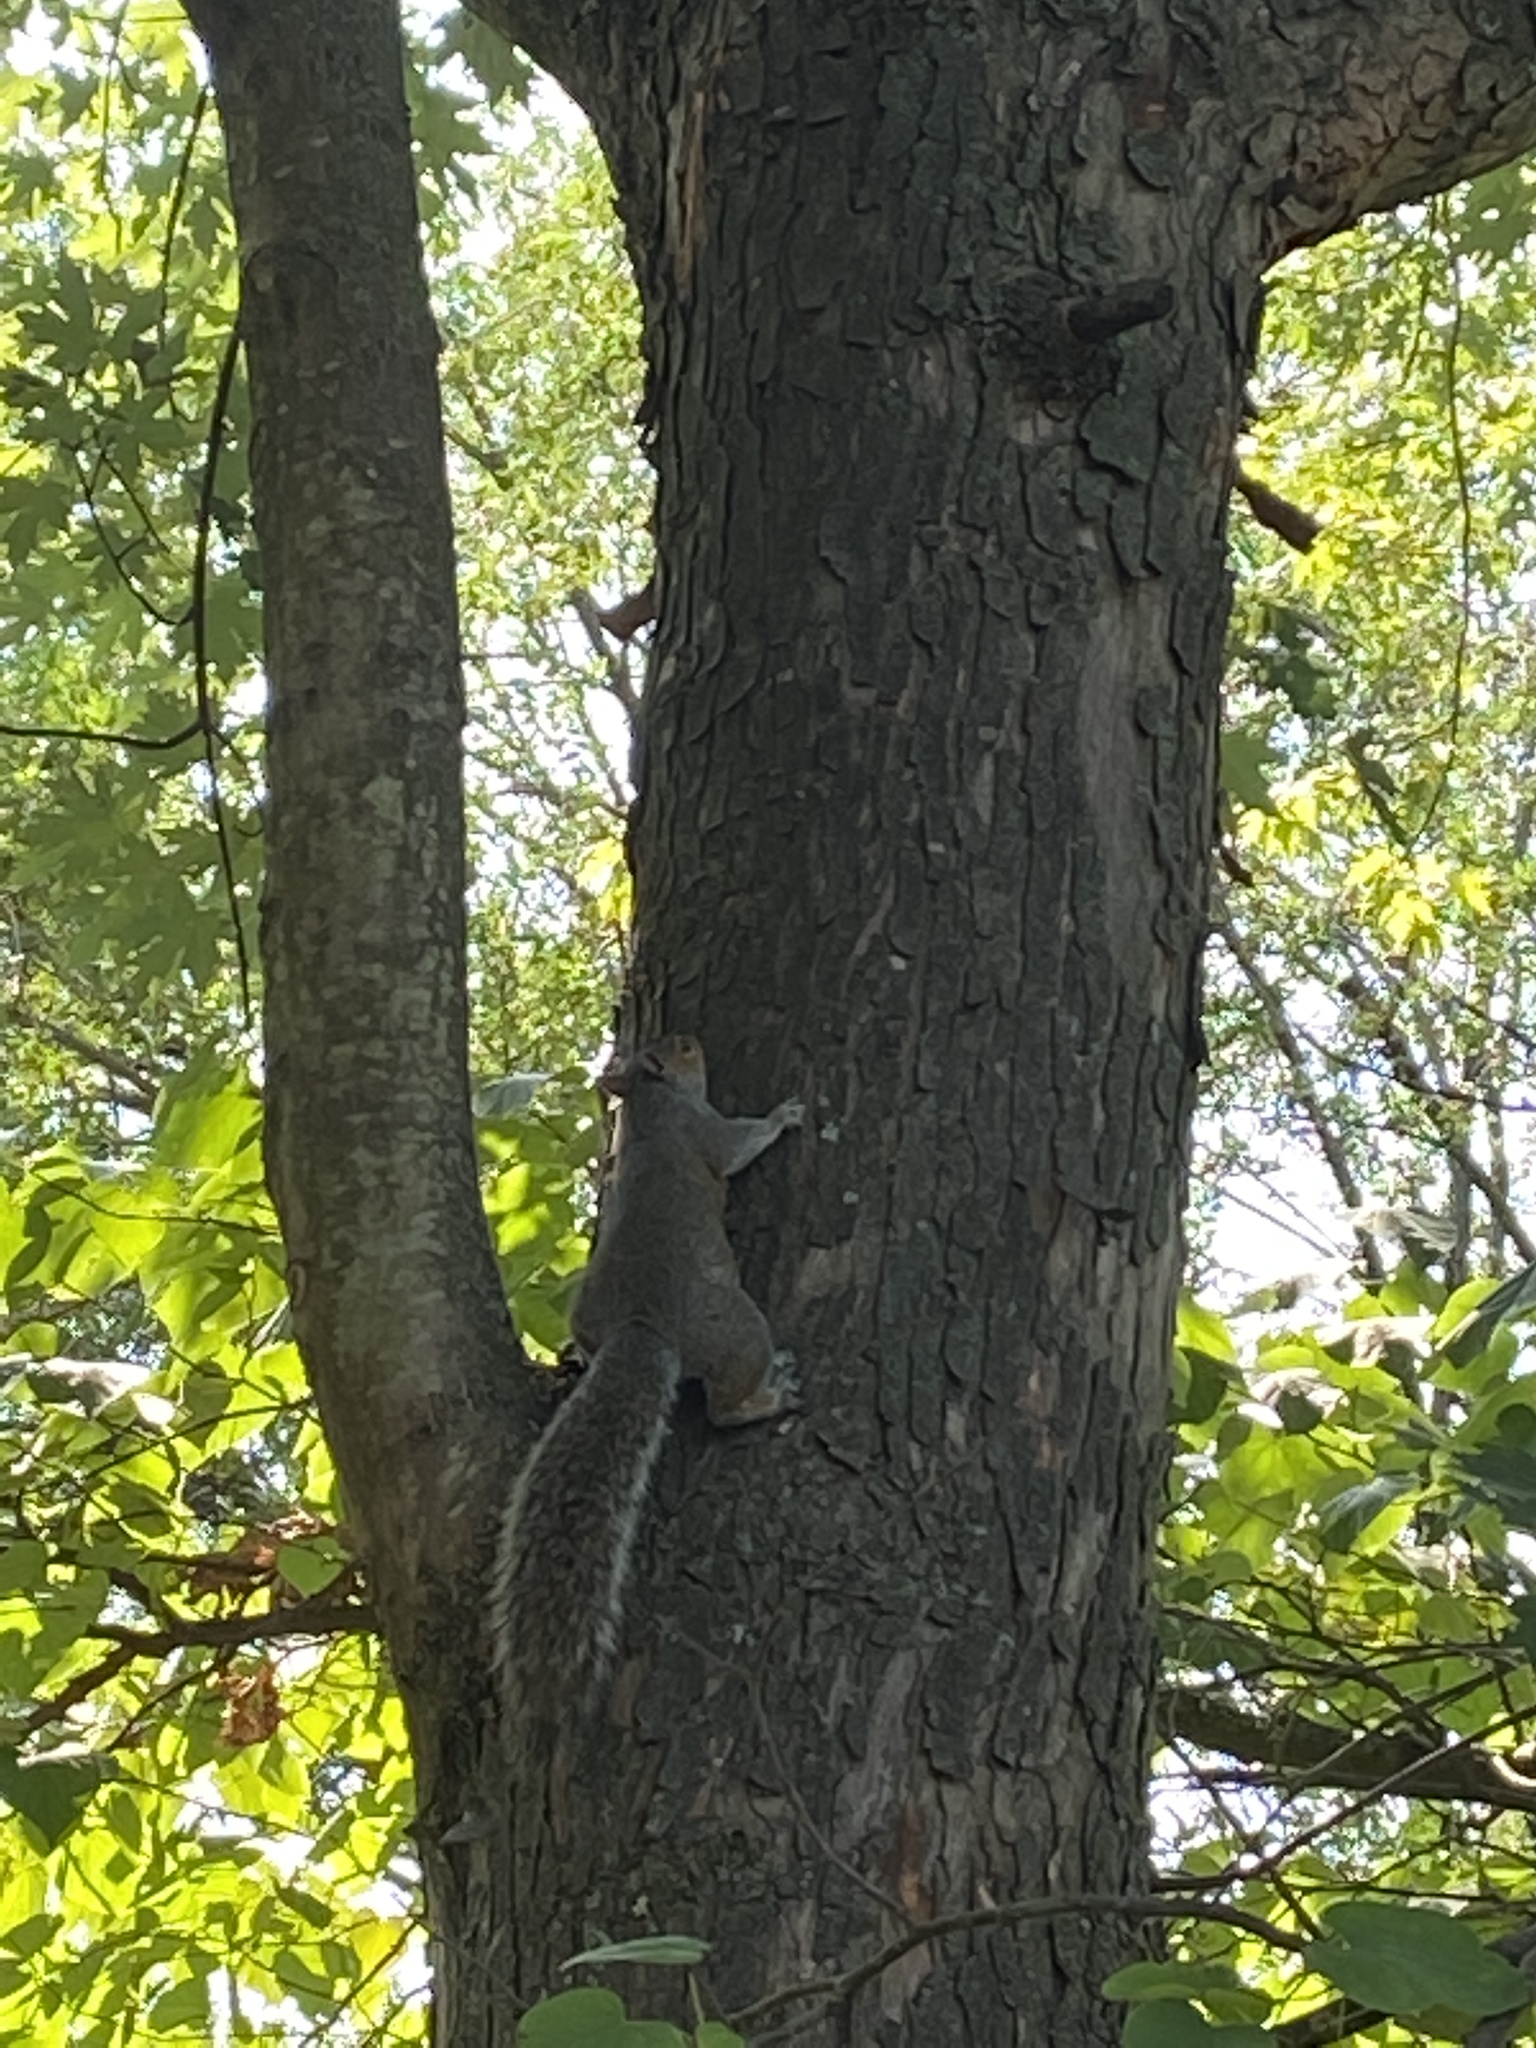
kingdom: Animalia
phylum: Chordata
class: Mammalia
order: Rodentia
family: Sciuridae
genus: Sciurus
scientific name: Sciurus carolinensis
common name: Eastern gray squirrel
